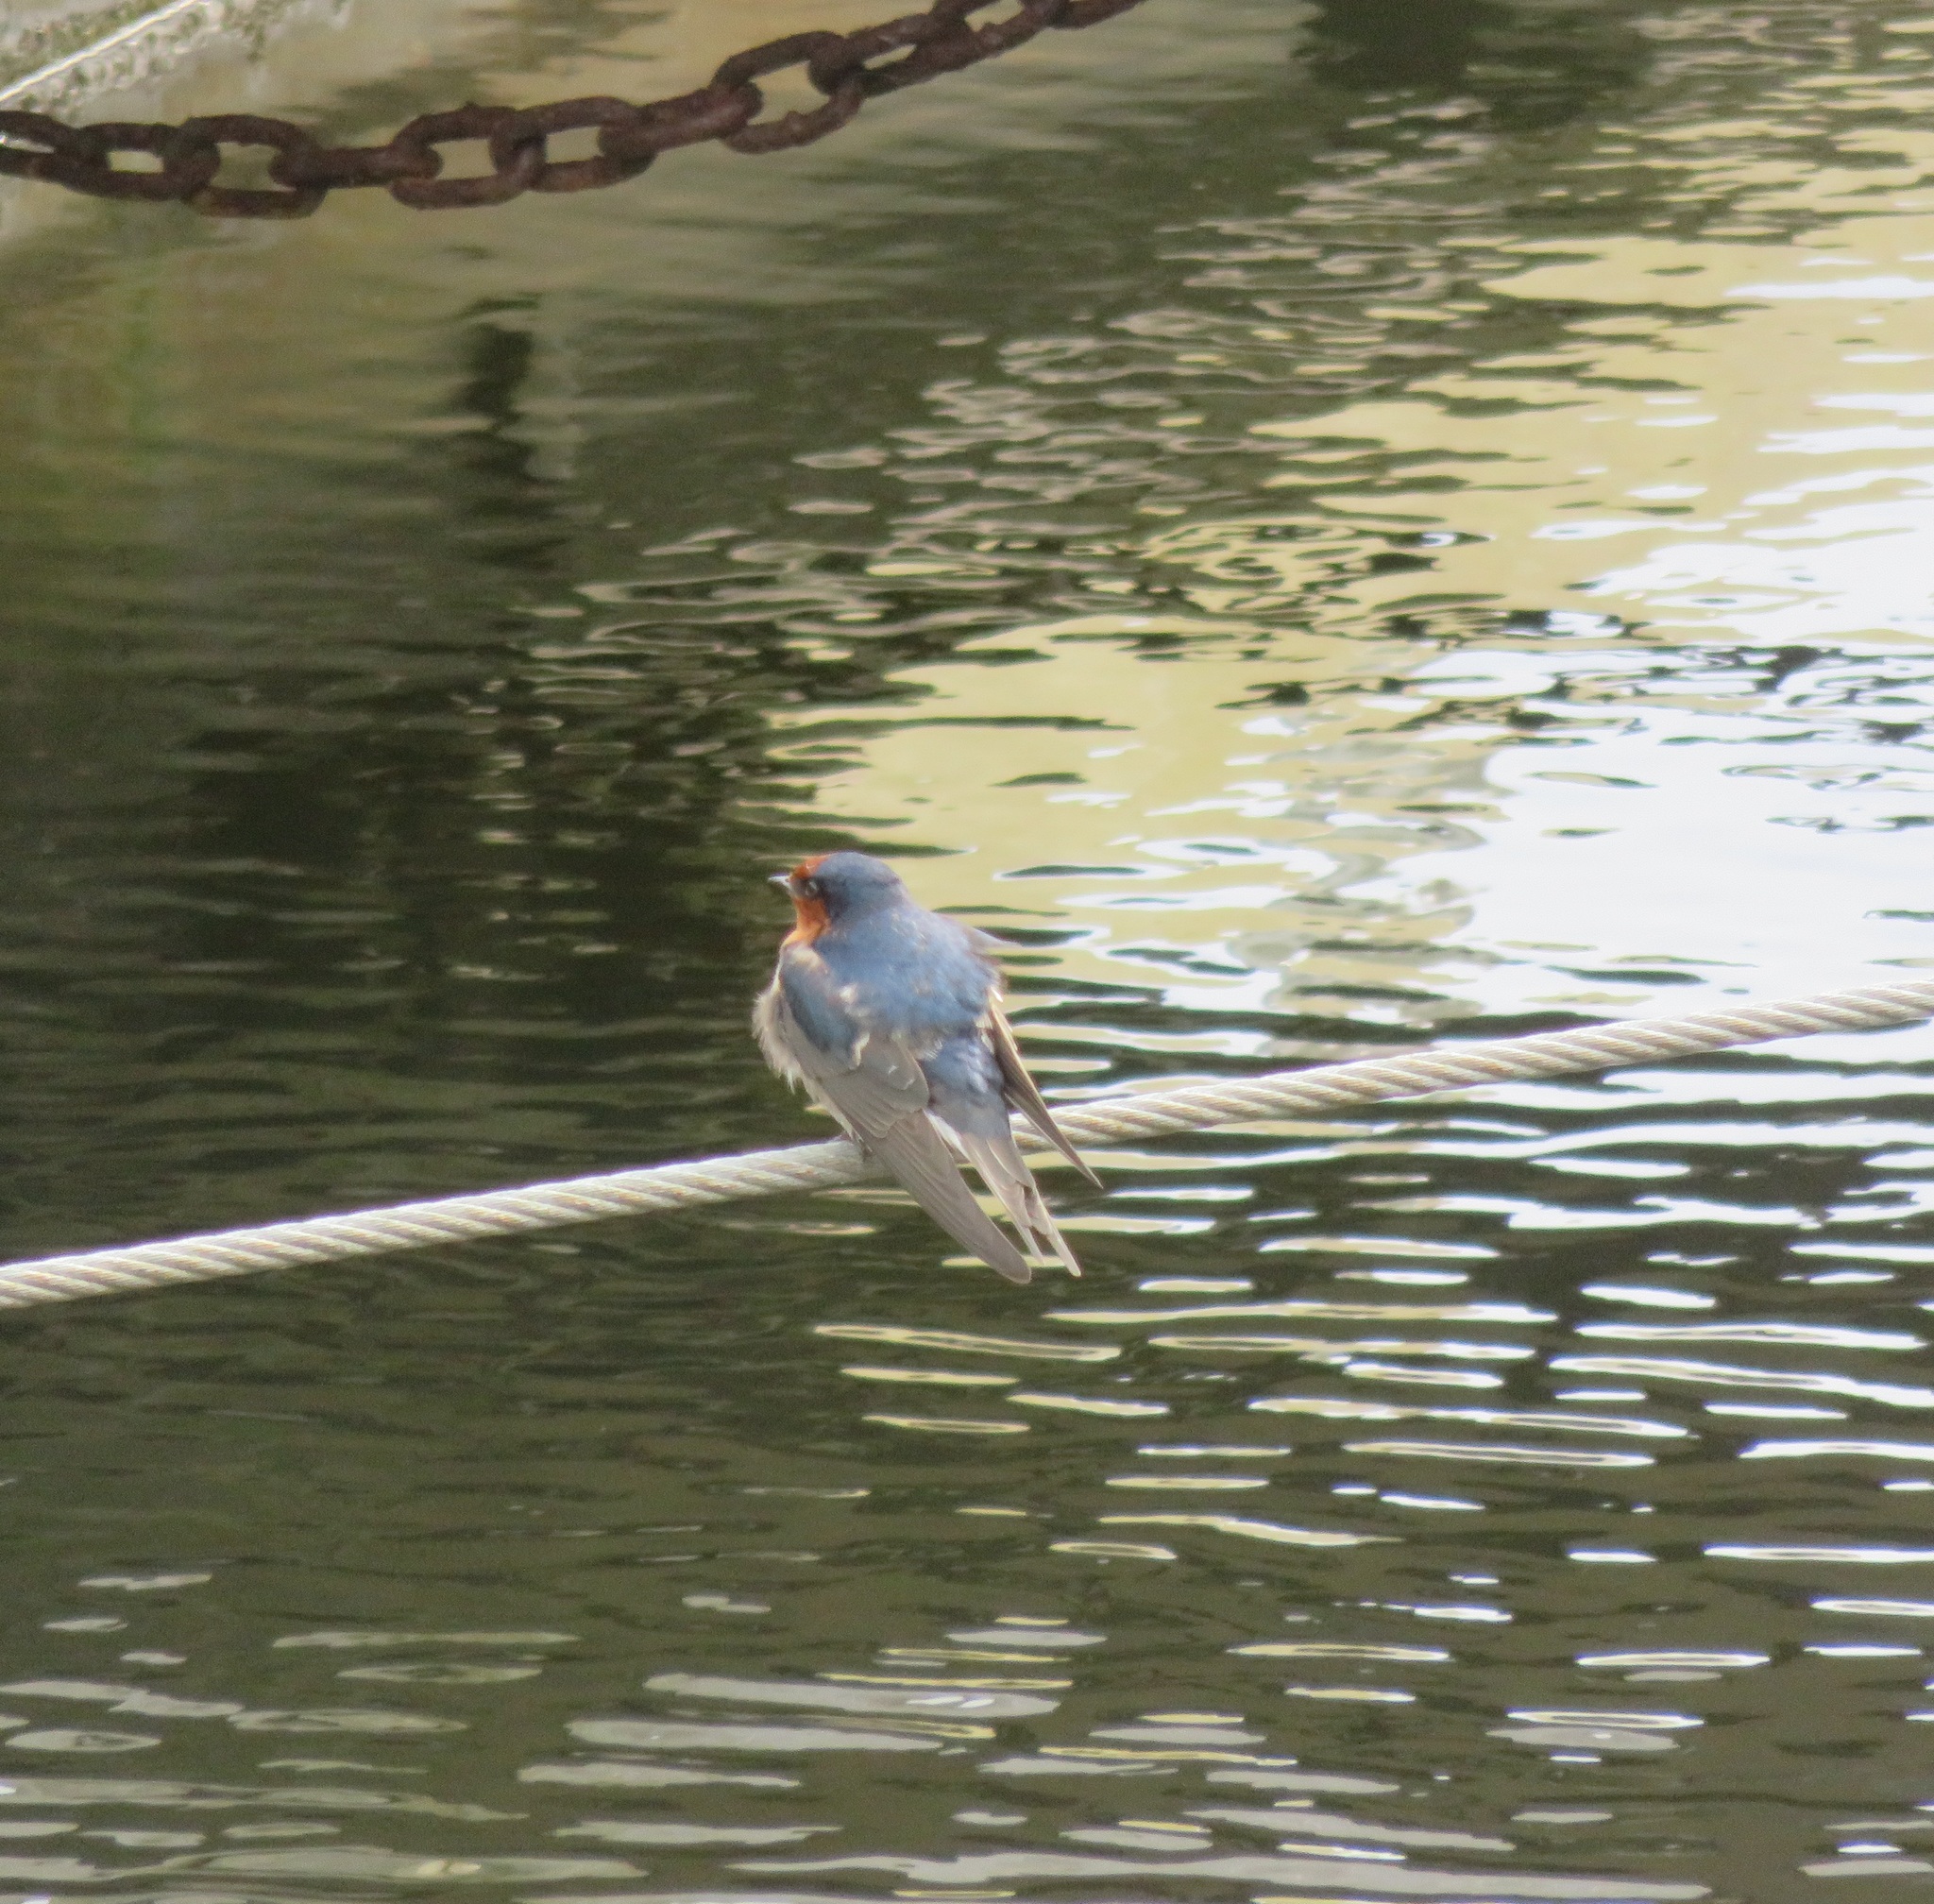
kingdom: Animalia
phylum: Chordata
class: Aves
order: Passeriformes
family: Hirundinidae
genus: Hirundo
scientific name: Hirundo neoxena
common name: Welcome swallow
